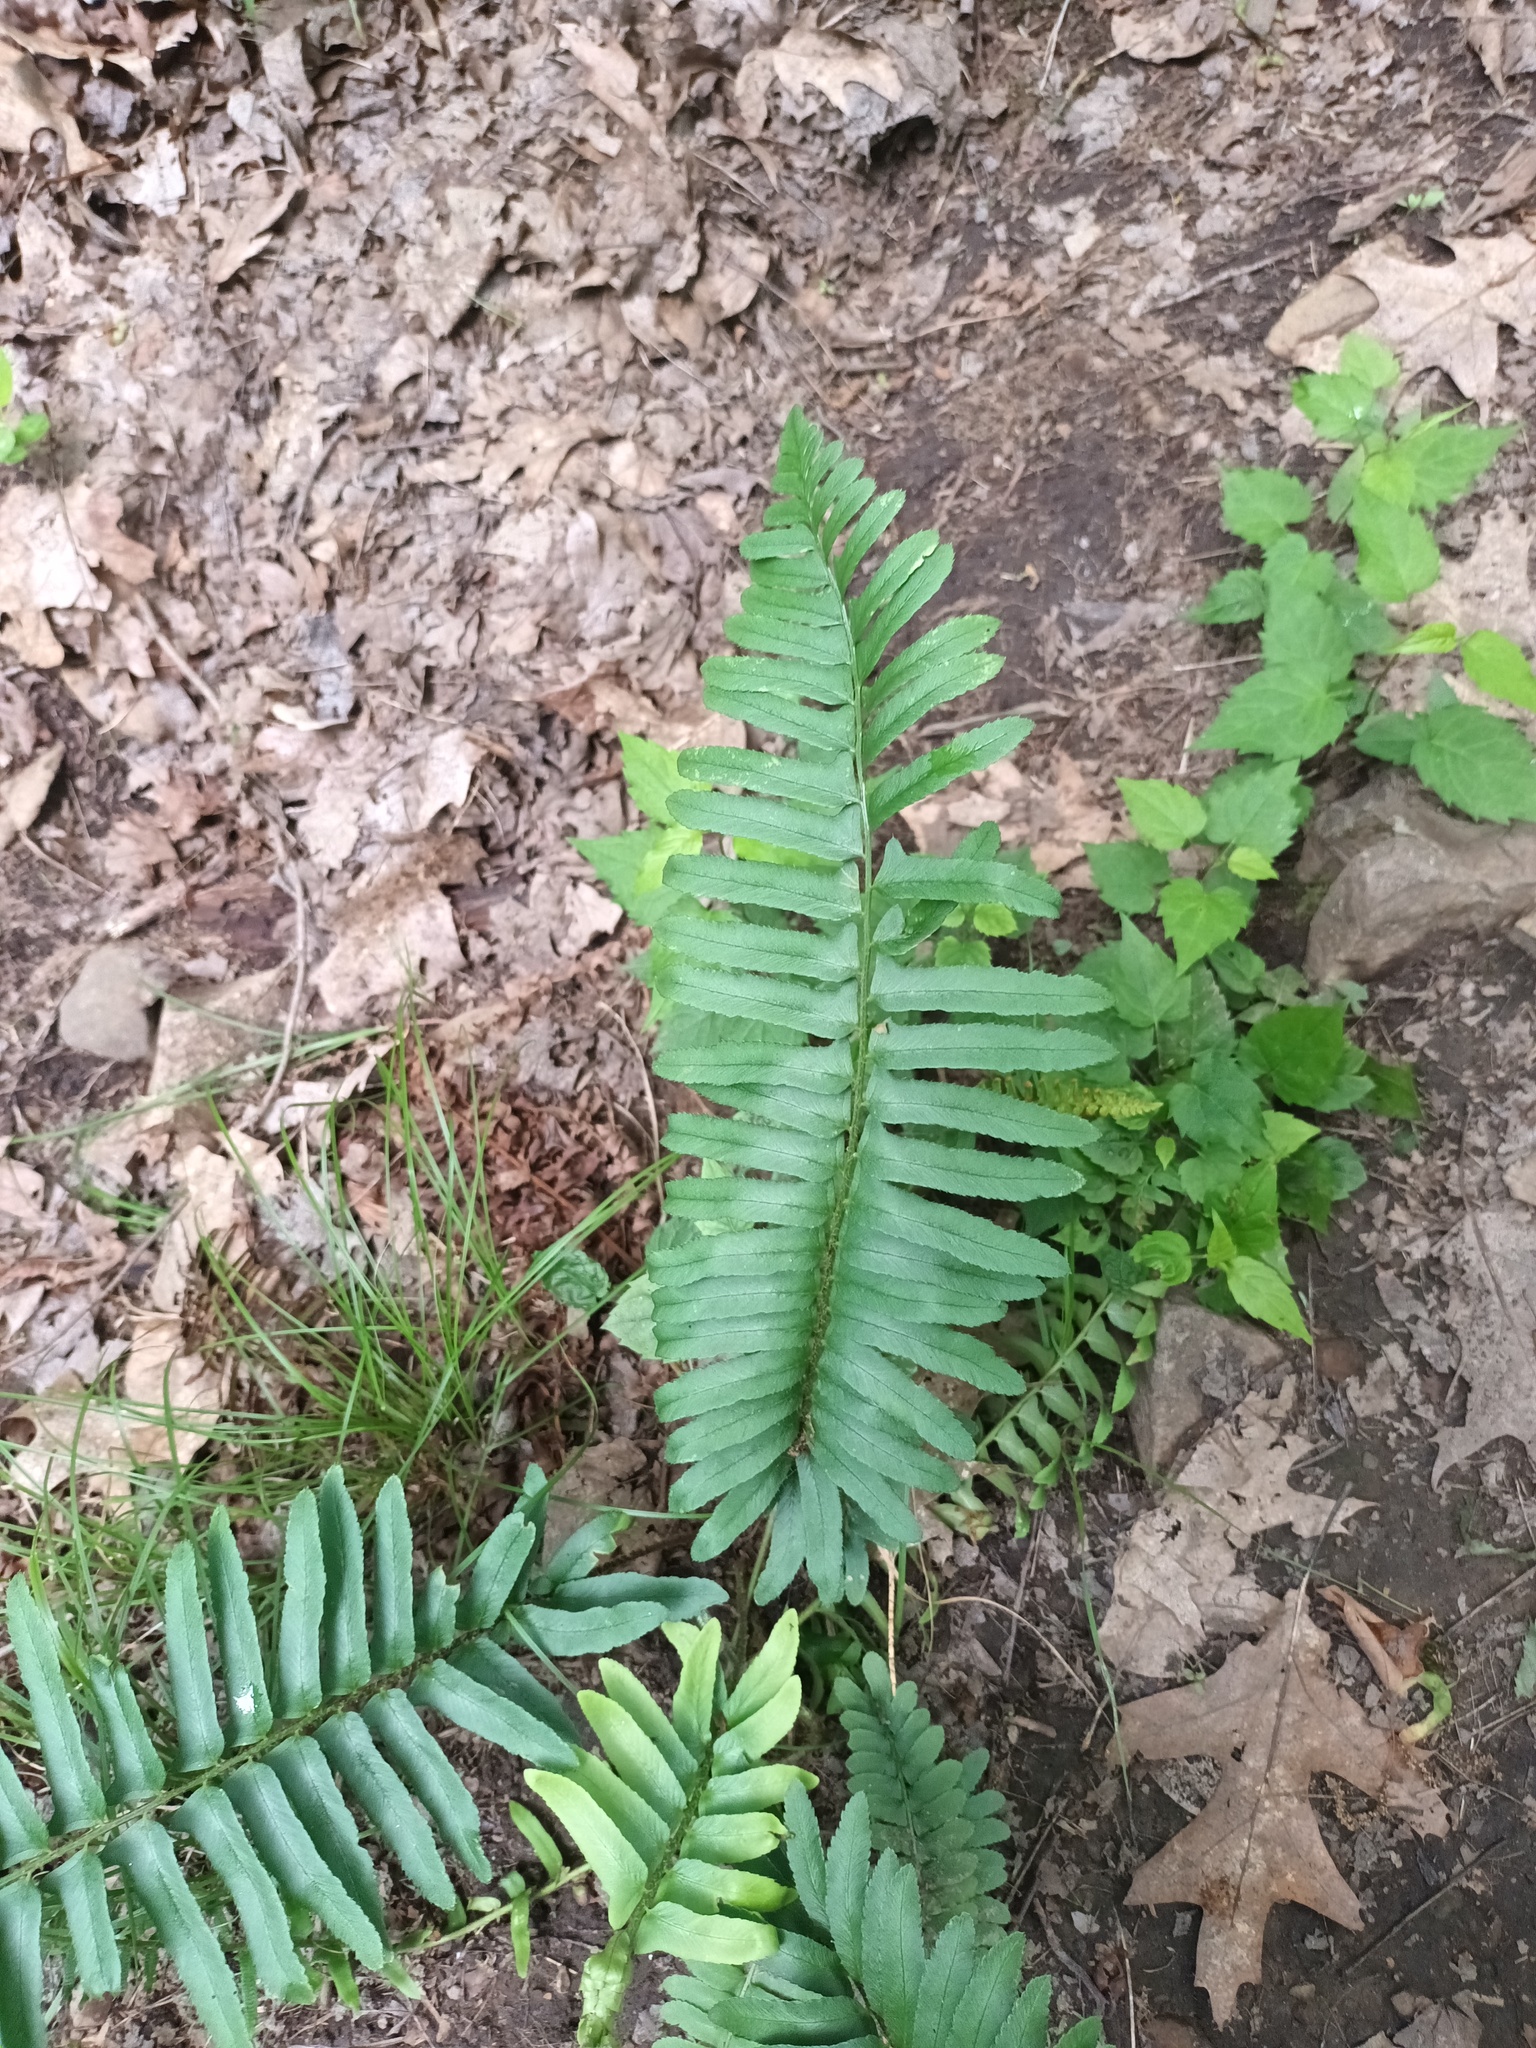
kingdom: Plantae
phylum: Tracheophyta
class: Polypodiopsida
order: Polypodiales
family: Dryopteridaceae
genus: Polystichum
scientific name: Polystichum acrostichoides
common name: Christmas fern
